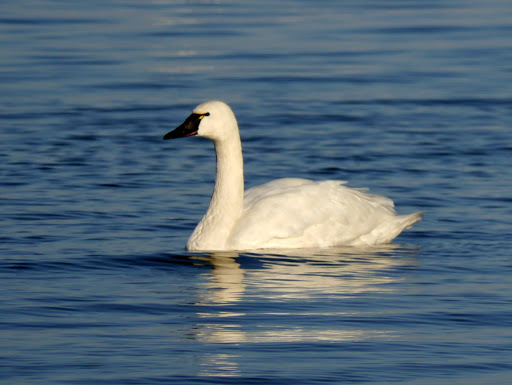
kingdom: Animalia
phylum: Chordata
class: Aves
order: Anseriformes
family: Anatidae
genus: Cygnus
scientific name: Cygnus columbianus
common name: Tundra swan
